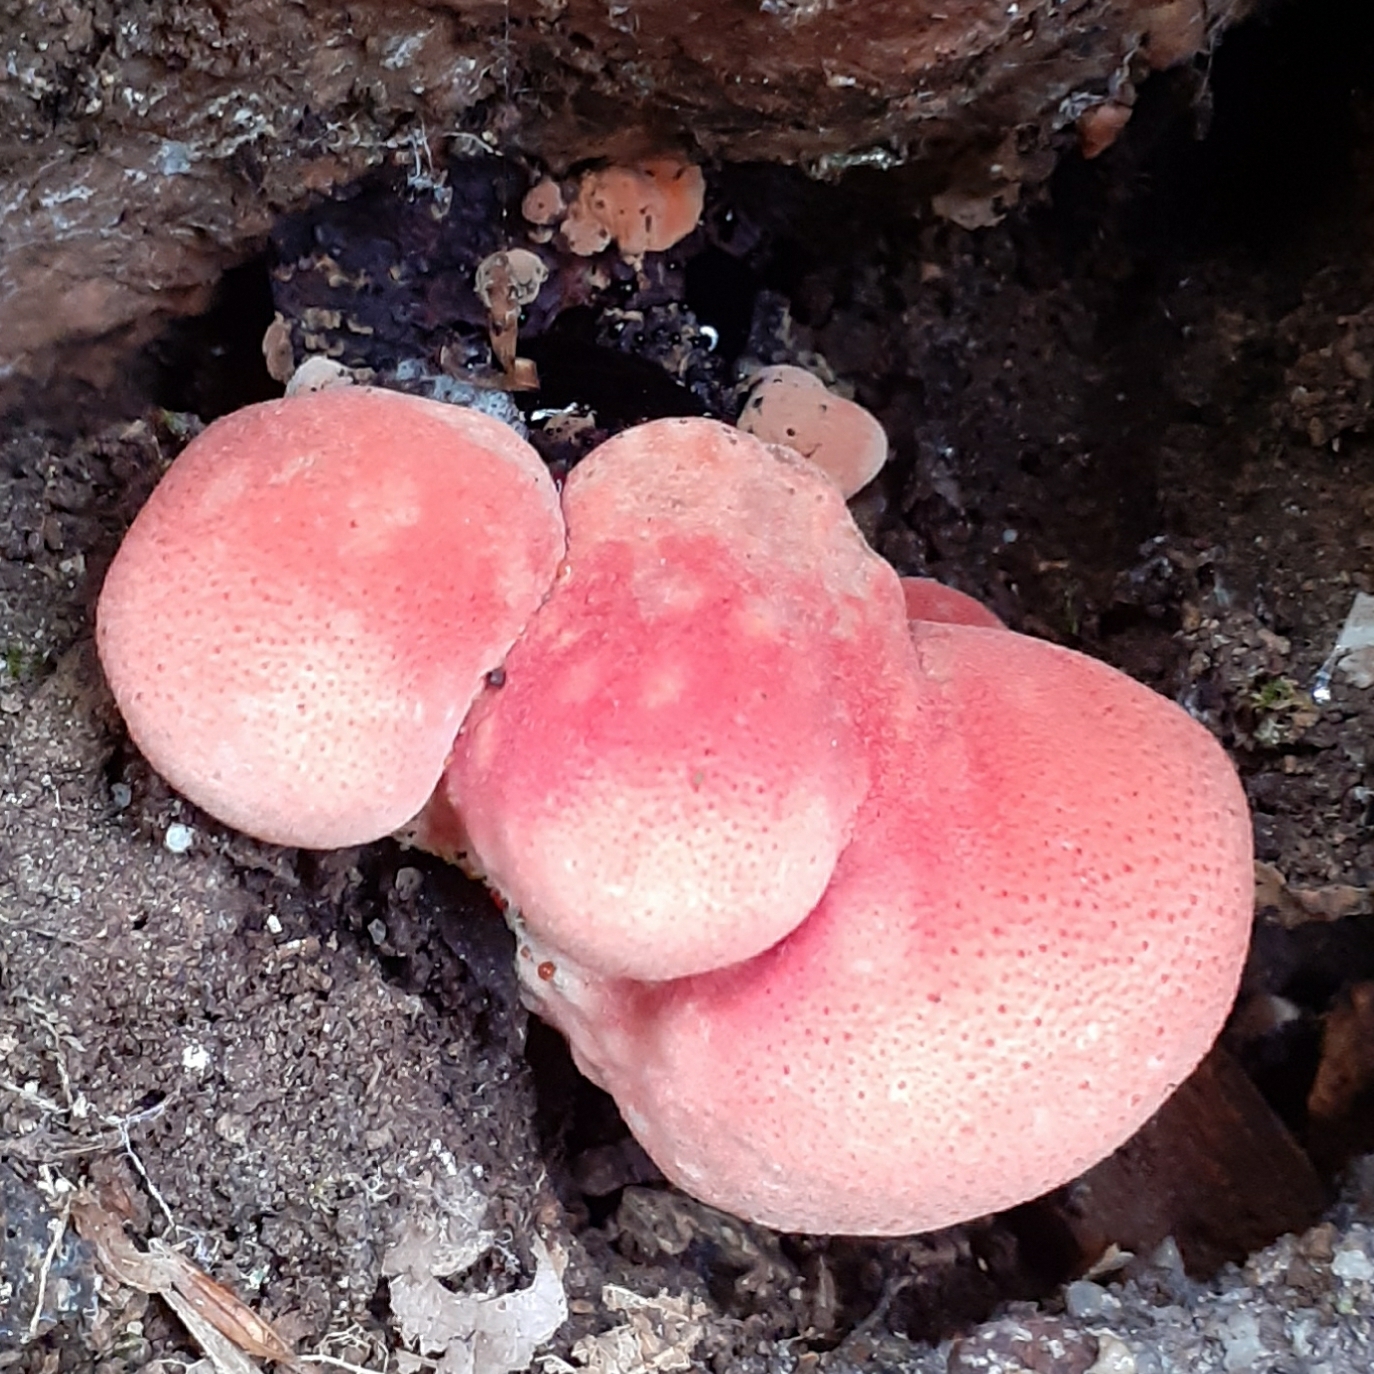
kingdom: Fungi
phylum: Basidiomycota
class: Agaricomycetes
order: Agaricales
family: Fistulinaceae
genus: Fistulina
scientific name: Fistulina hepatica
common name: Beef-steak fungus
